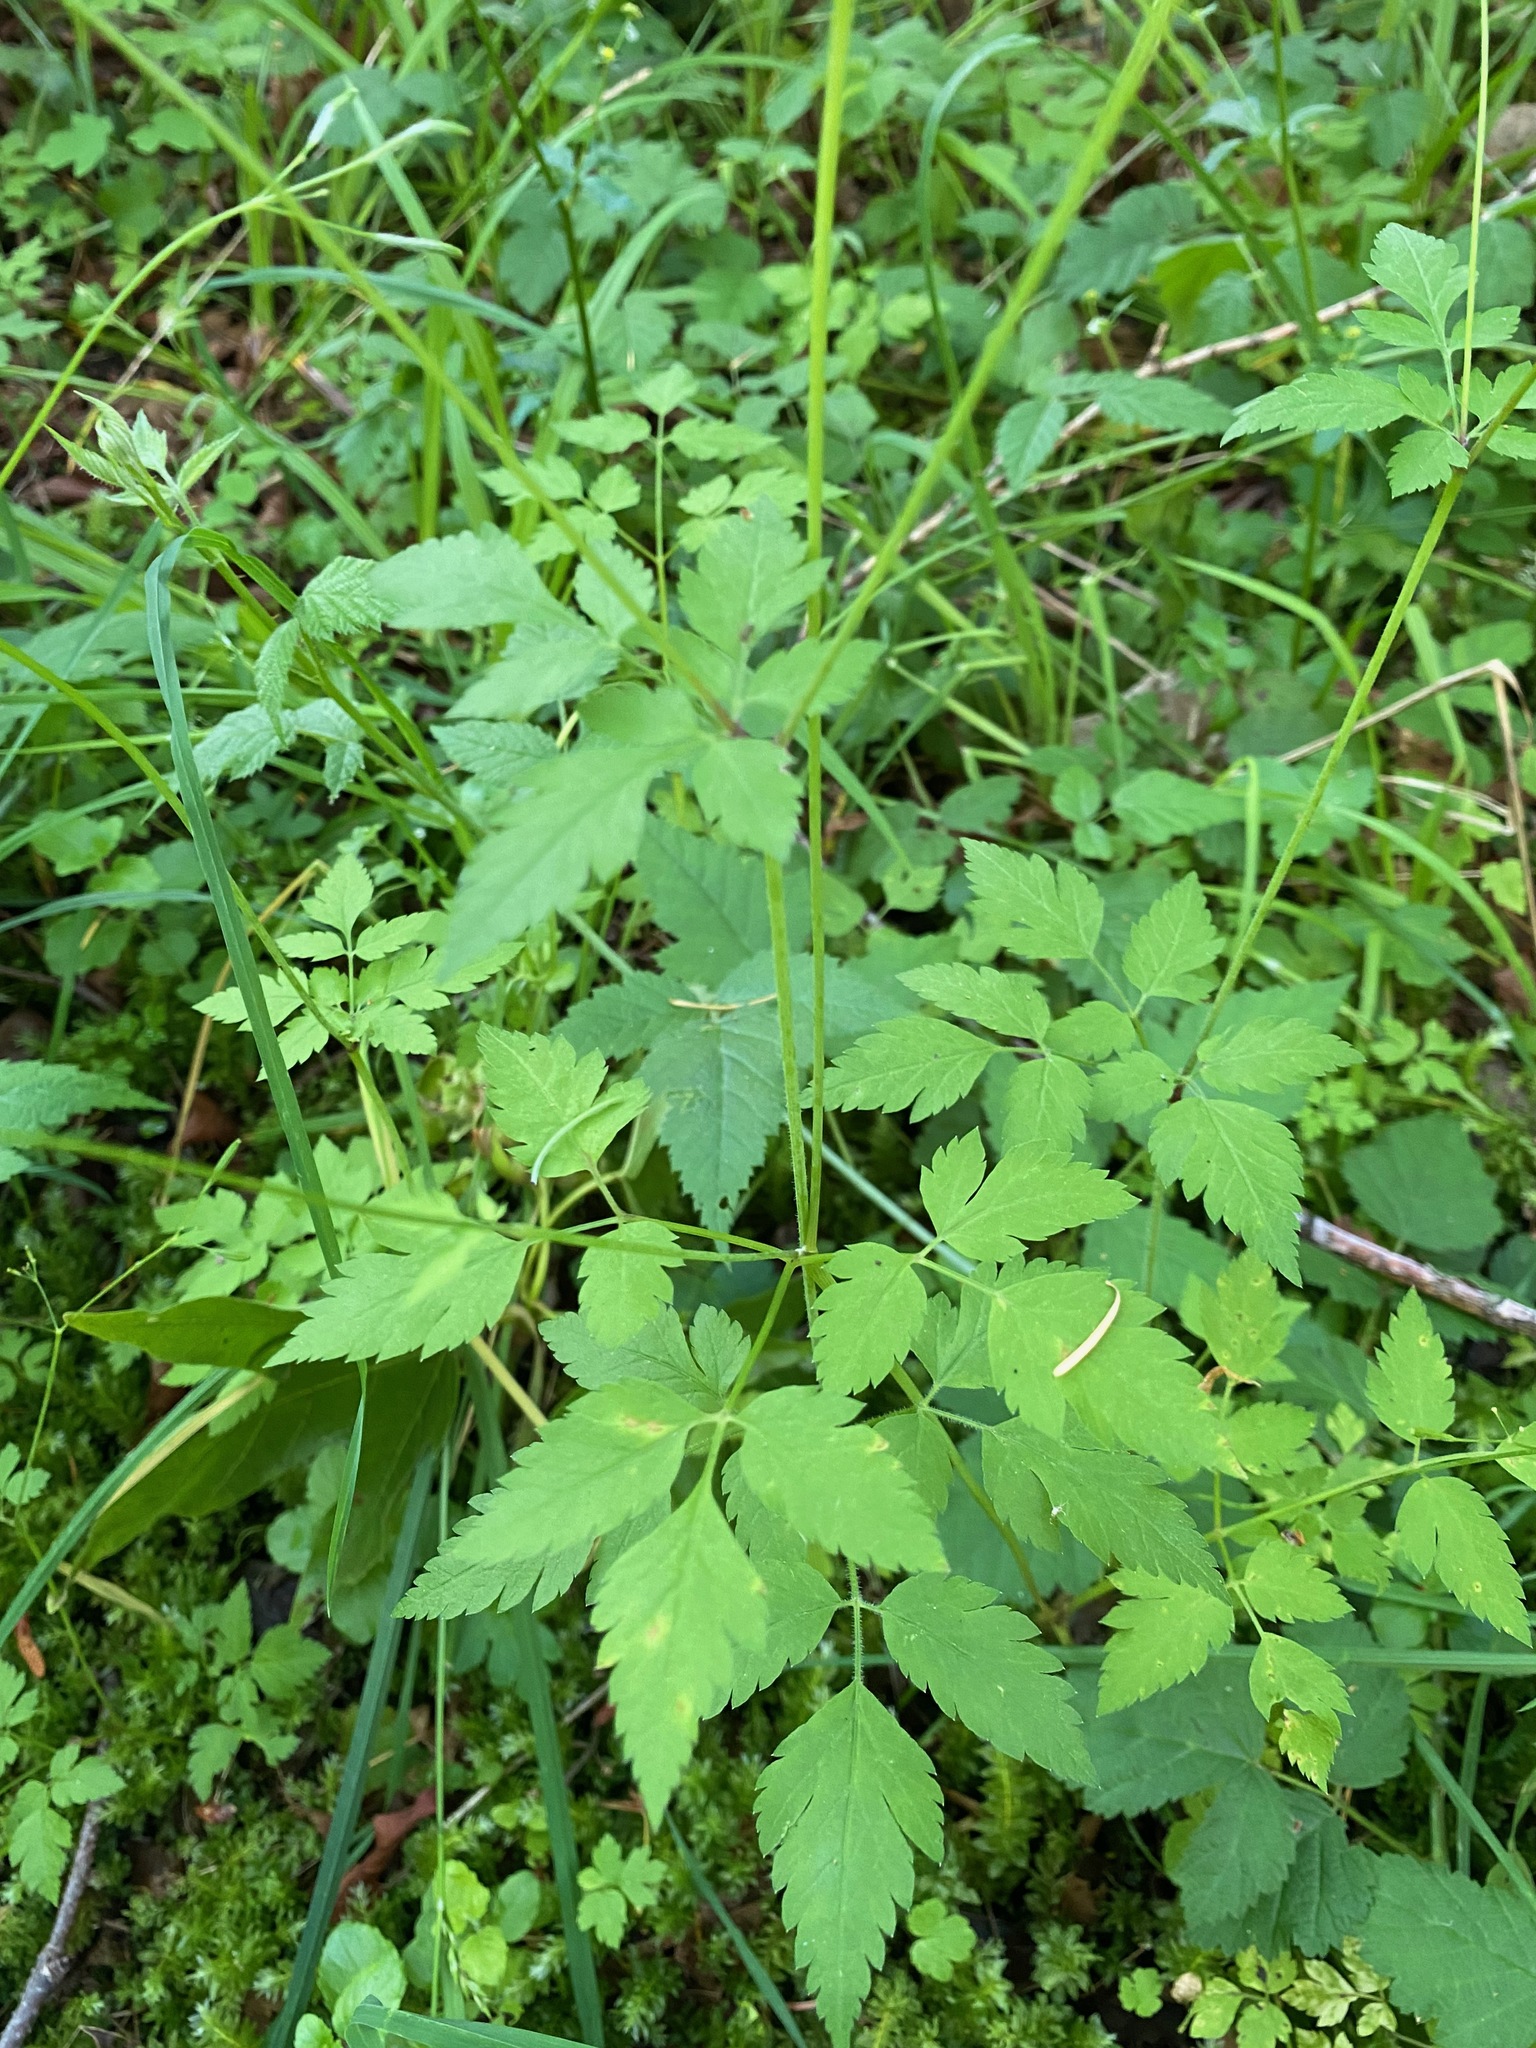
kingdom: Plantae
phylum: Tracheophyta
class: Magnoliopsida
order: Apiales
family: Apiaceae
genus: Osmorhiza
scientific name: Osmorhiza berteroi
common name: Mountain sweet cicely
